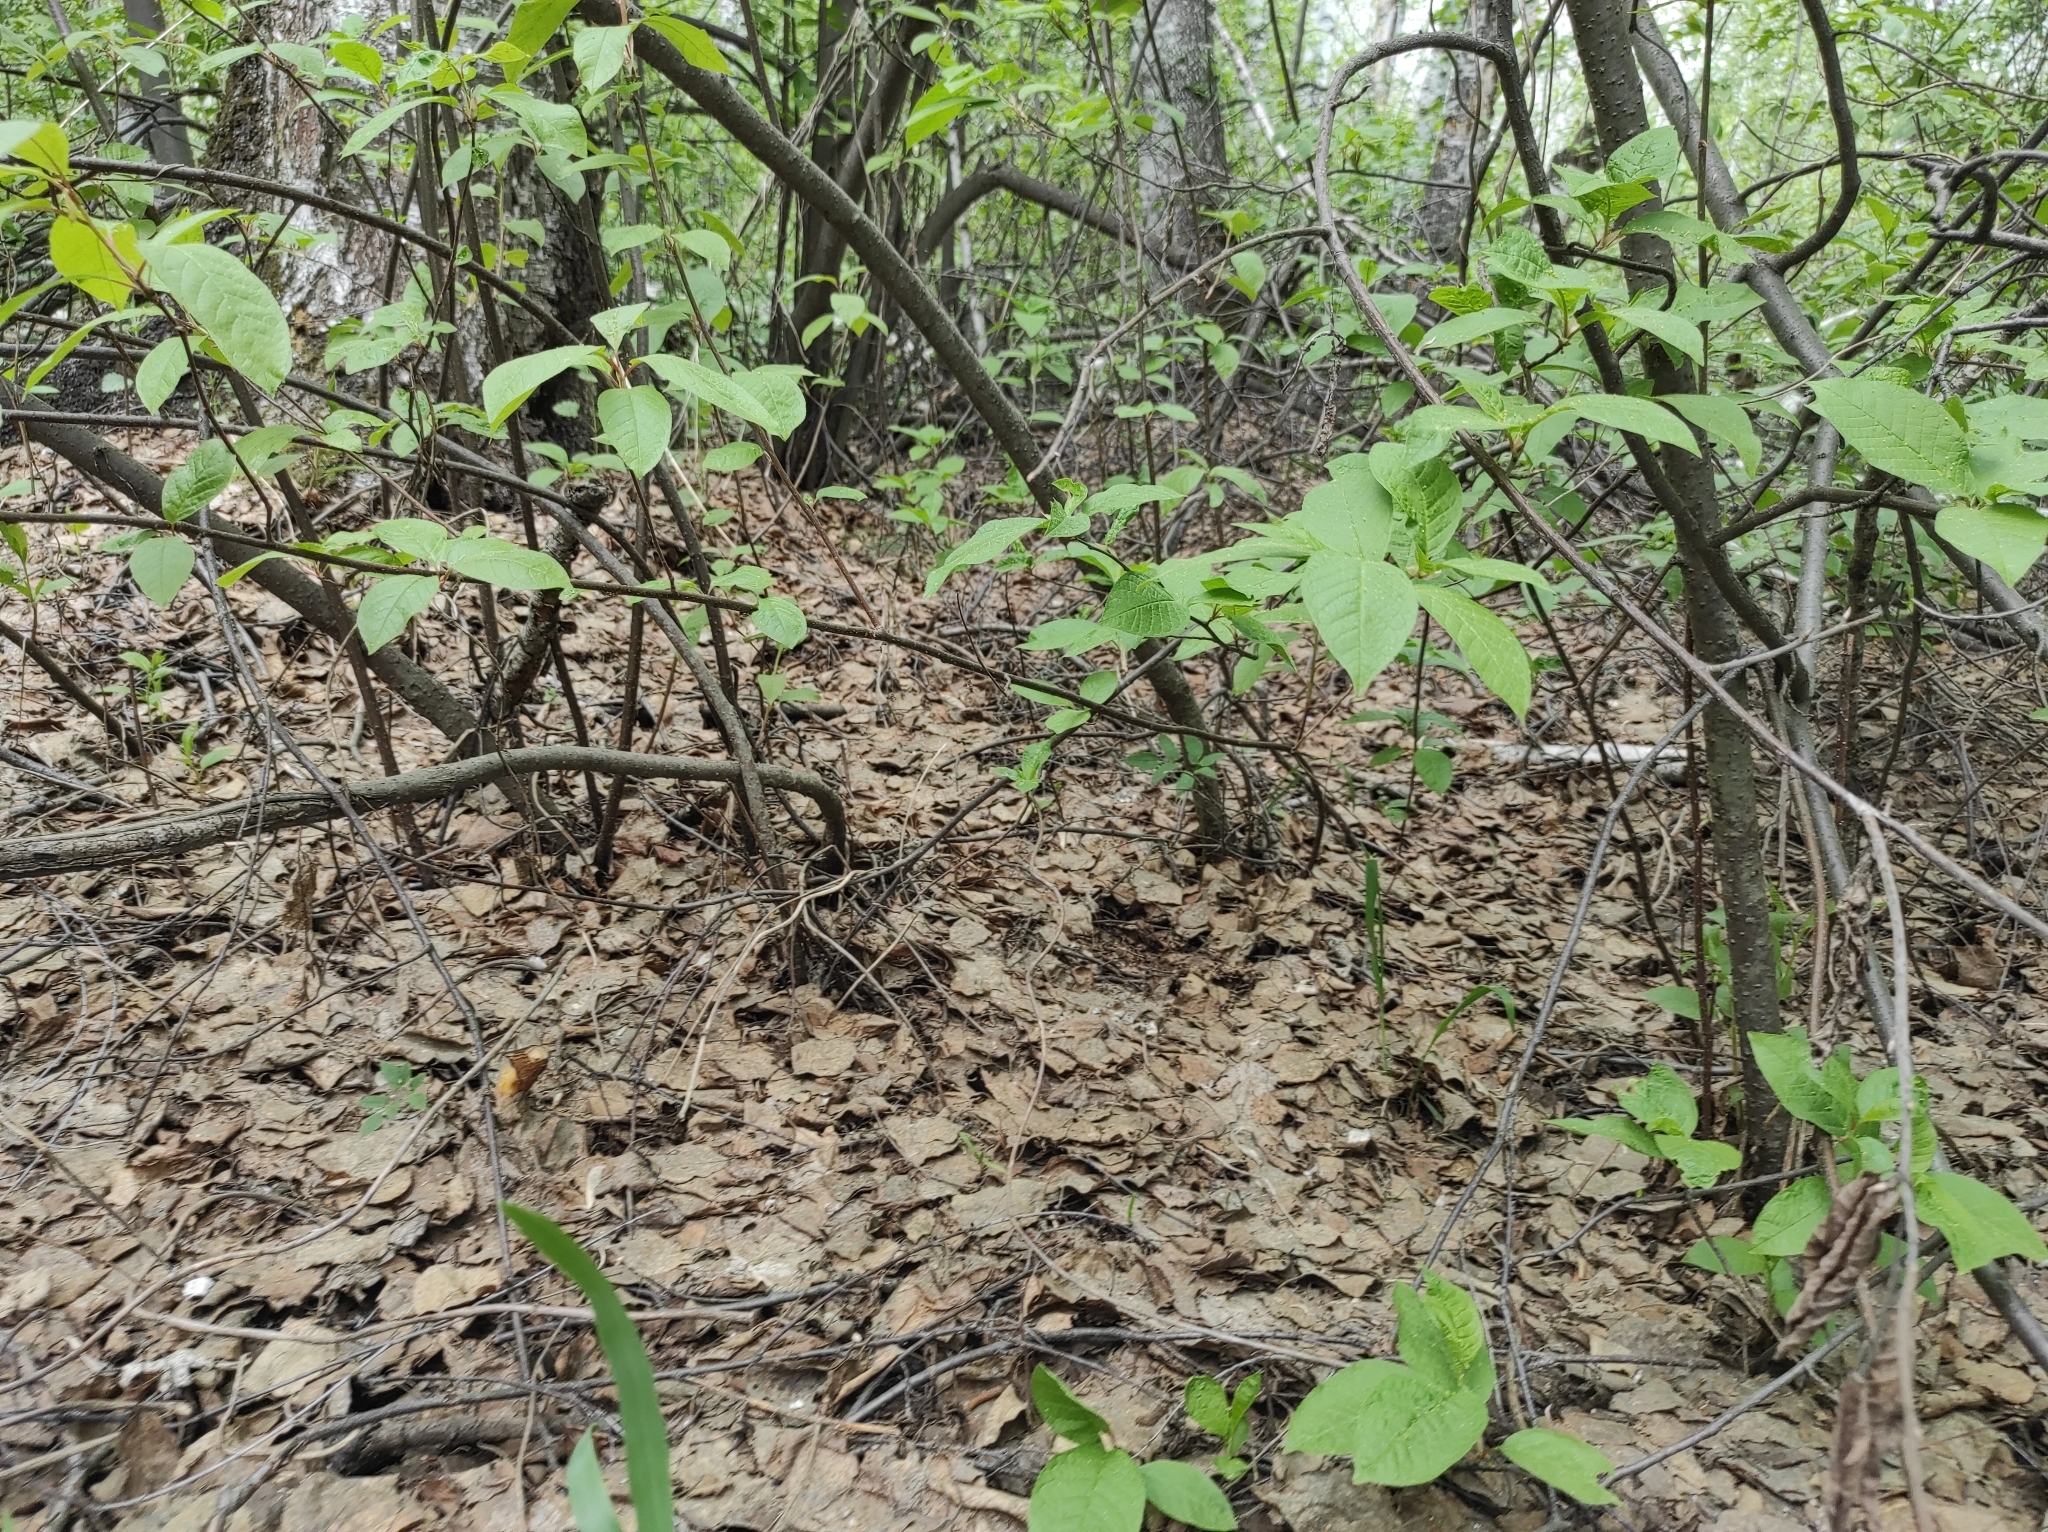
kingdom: Fungi
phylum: Ascomycota
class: Pezizomycetes
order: Pezizales
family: Morchellaceae
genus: Verpa
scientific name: Verpa bohemica
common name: Wrinkled thimble morel
